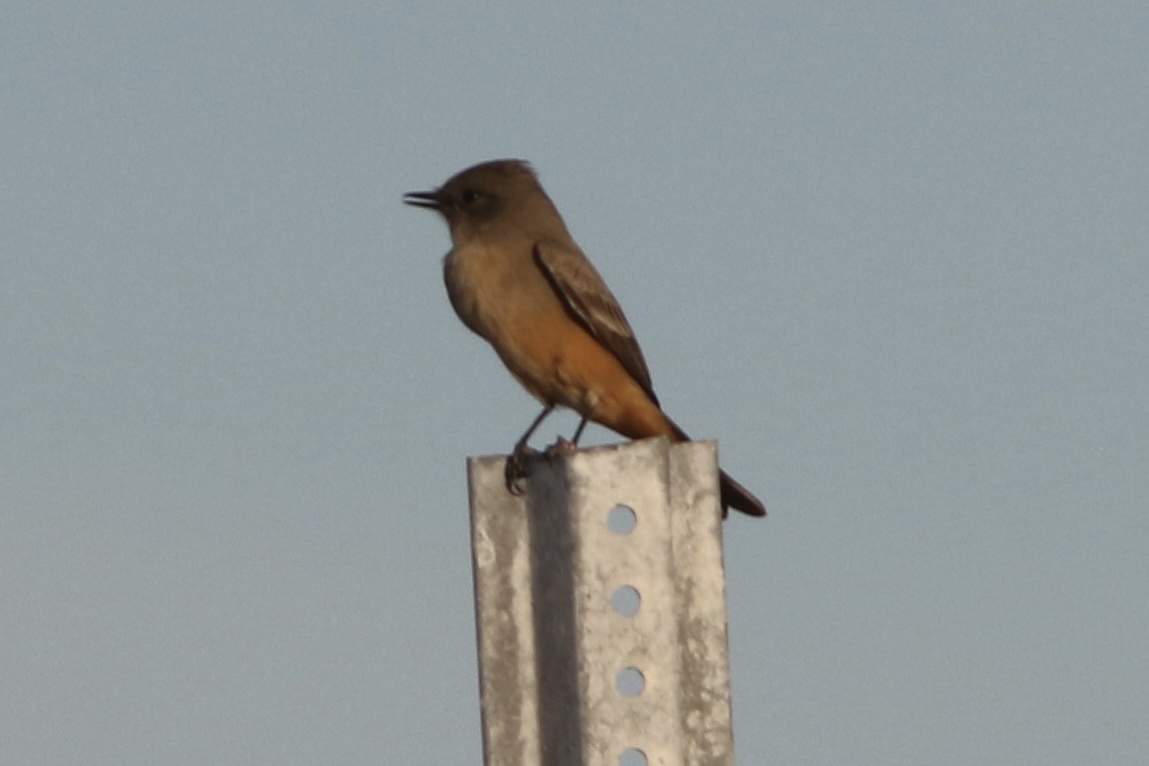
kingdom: Animalia
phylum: Chordata
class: Aves
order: Passeriformes
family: Tyrannidae
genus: Sayornis
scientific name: Sayornis saya
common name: Say's phoebe
